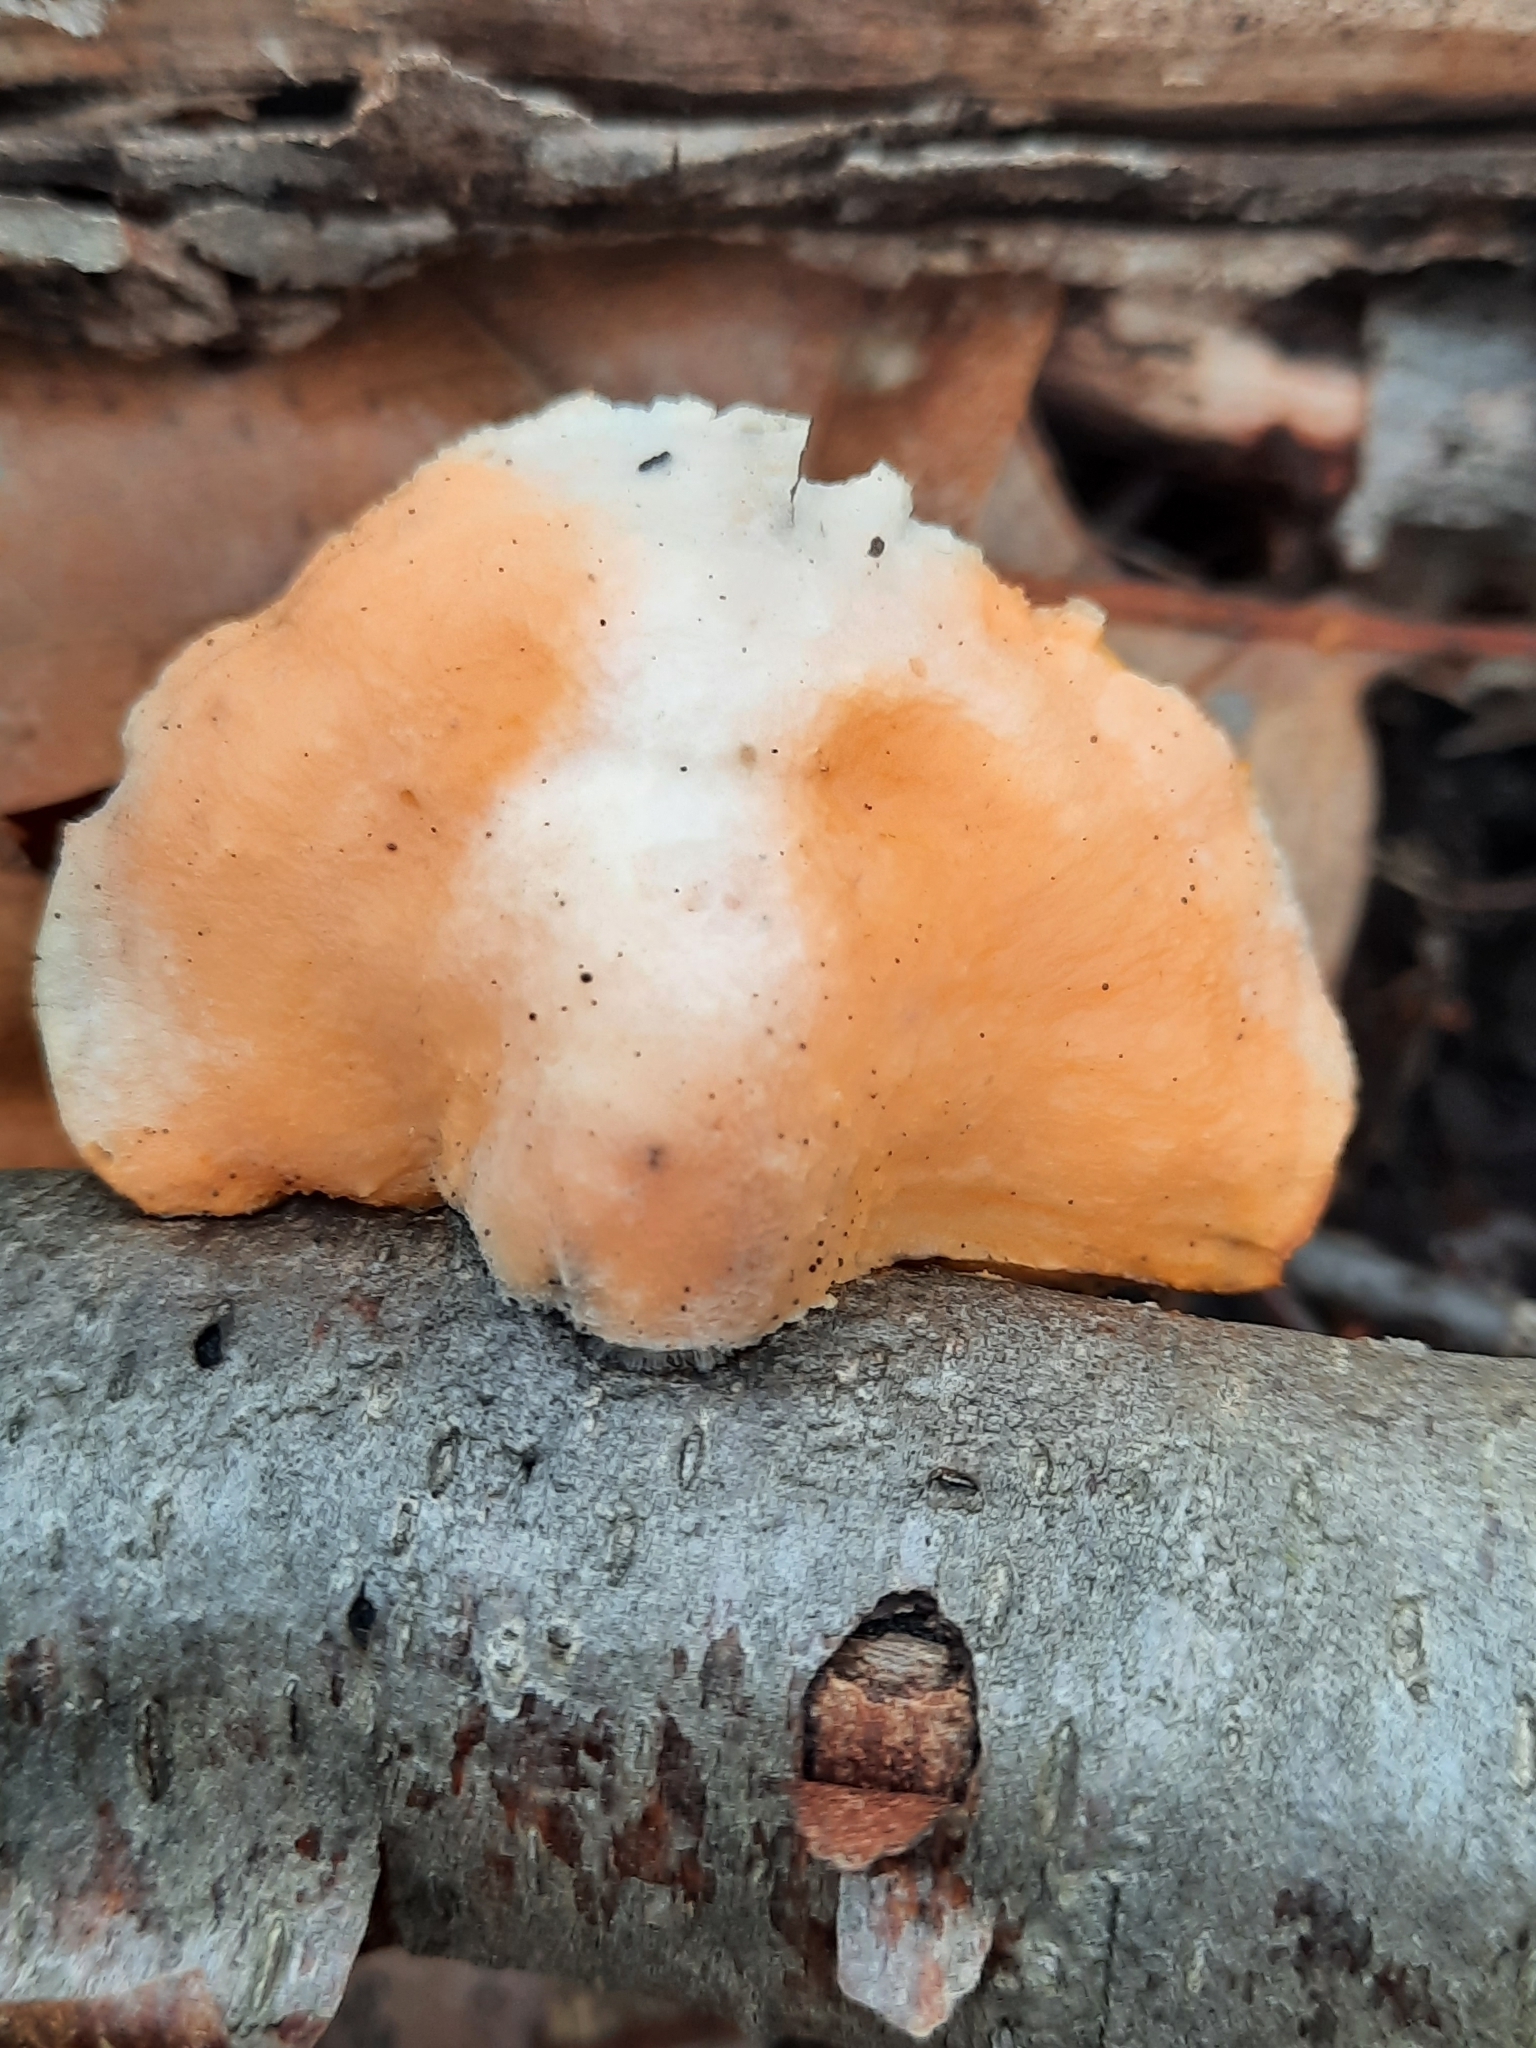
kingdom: Fungi
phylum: Ascomycota
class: Sordariomycetes
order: Hypocreales
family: Hypocreaceae
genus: Protocrea
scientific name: Protocrea pallida
